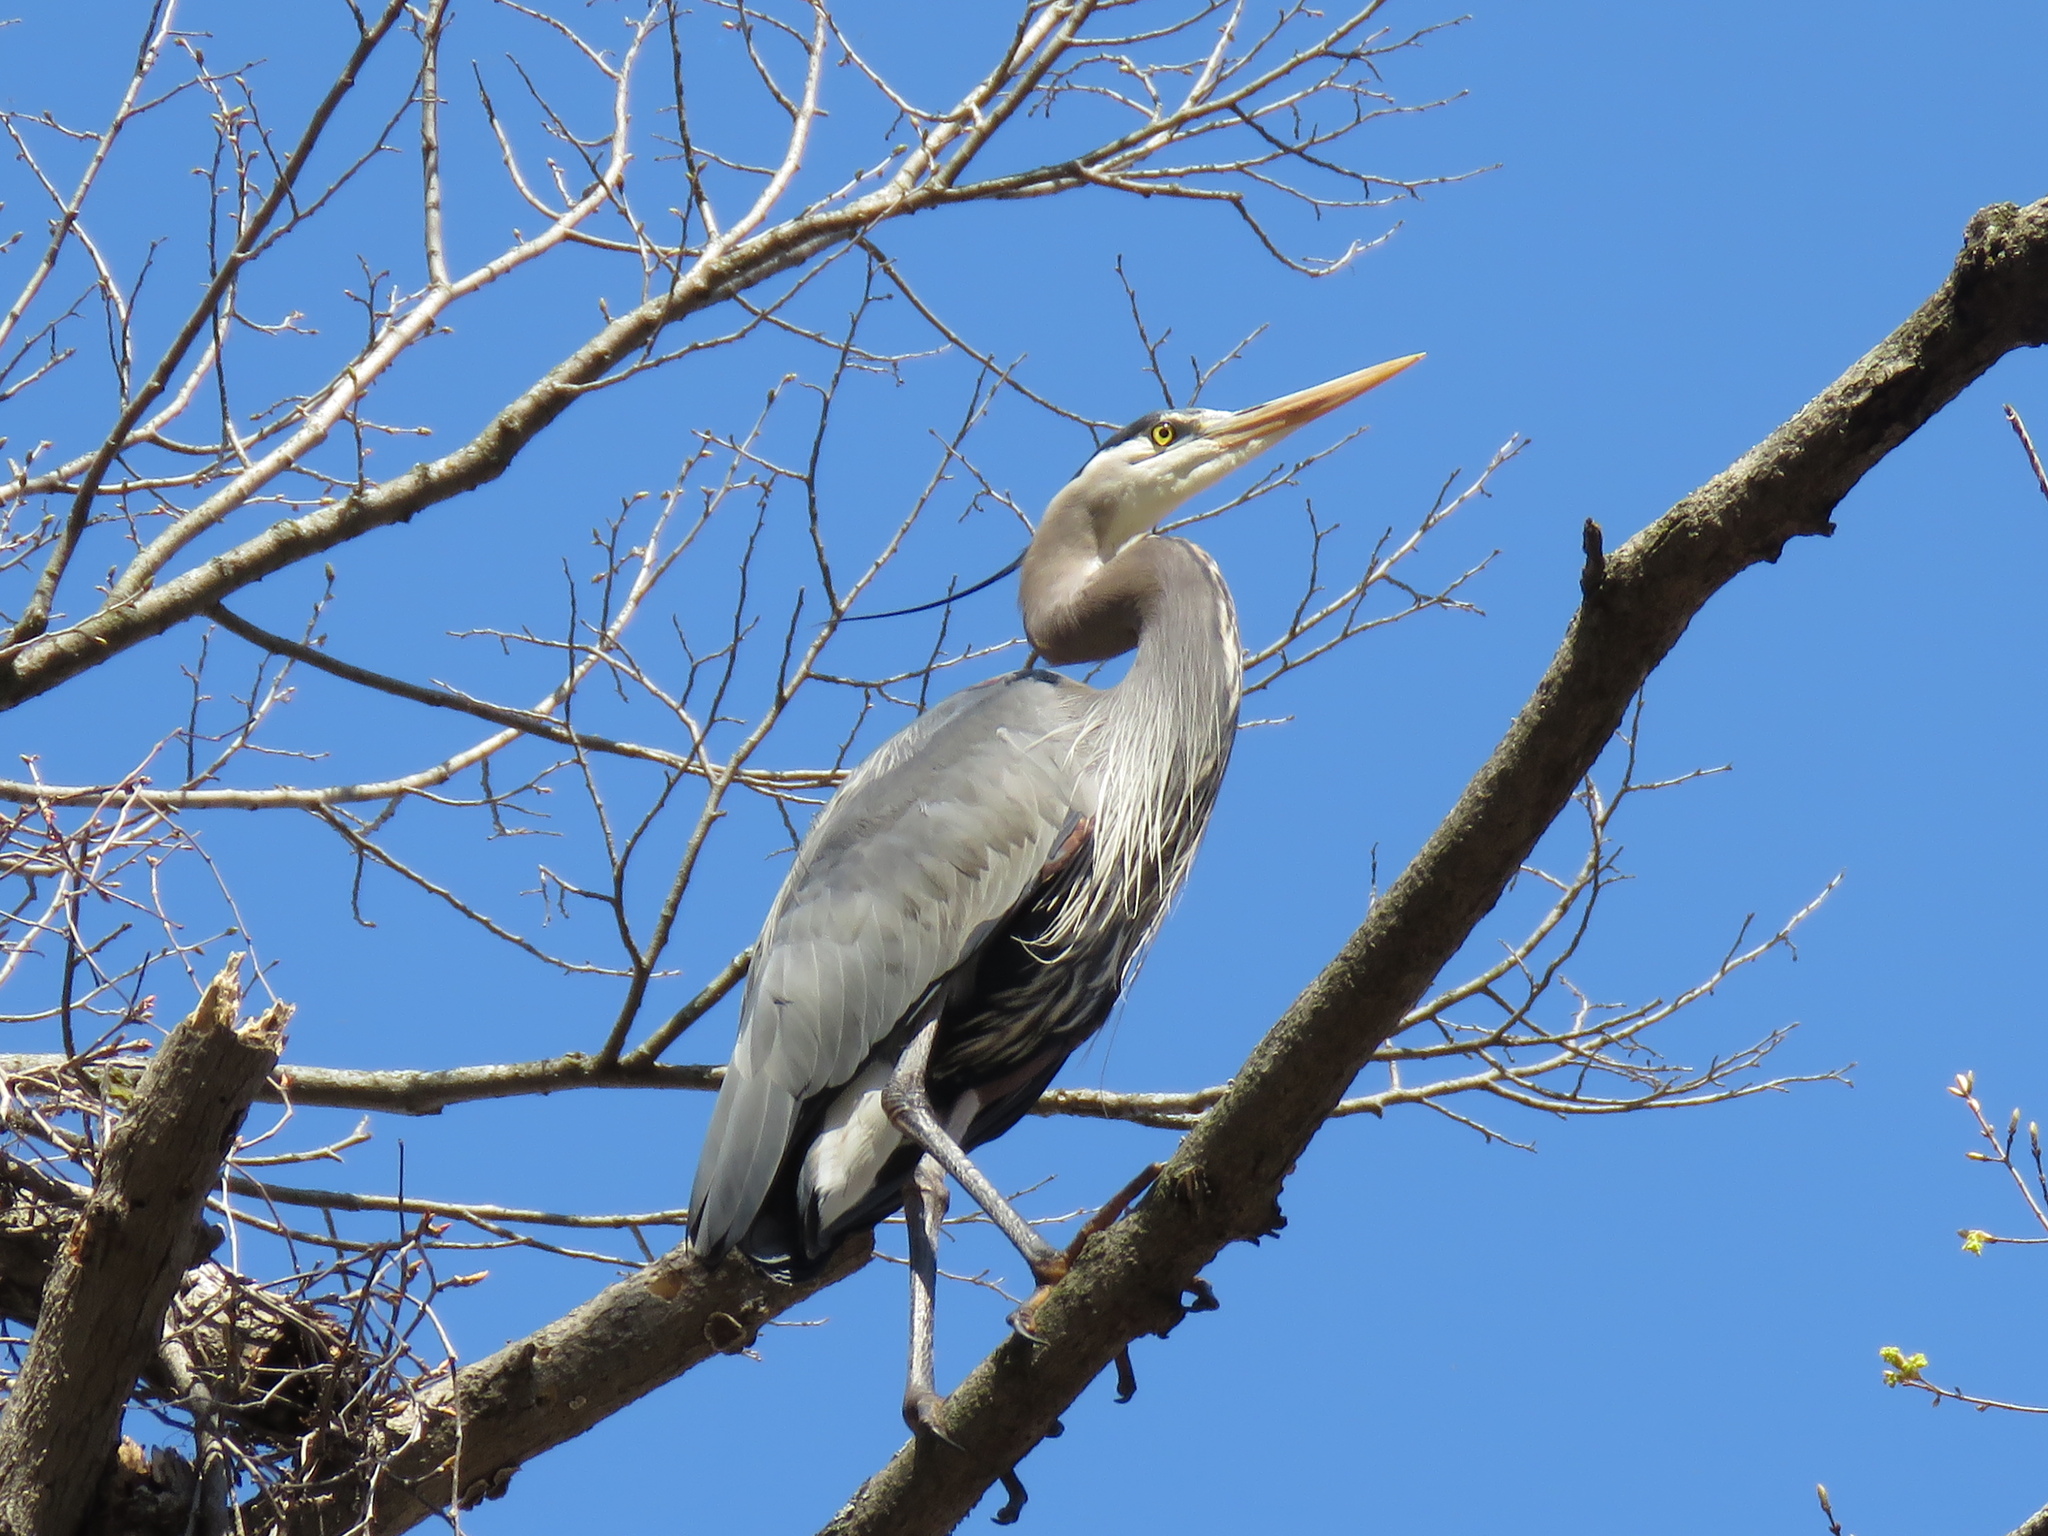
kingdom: Animalia
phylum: Chordata
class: Aves
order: Pelecaniformes
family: Ardeidae
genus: Ardea
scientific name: Ardea herodias
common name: Great blue heron
